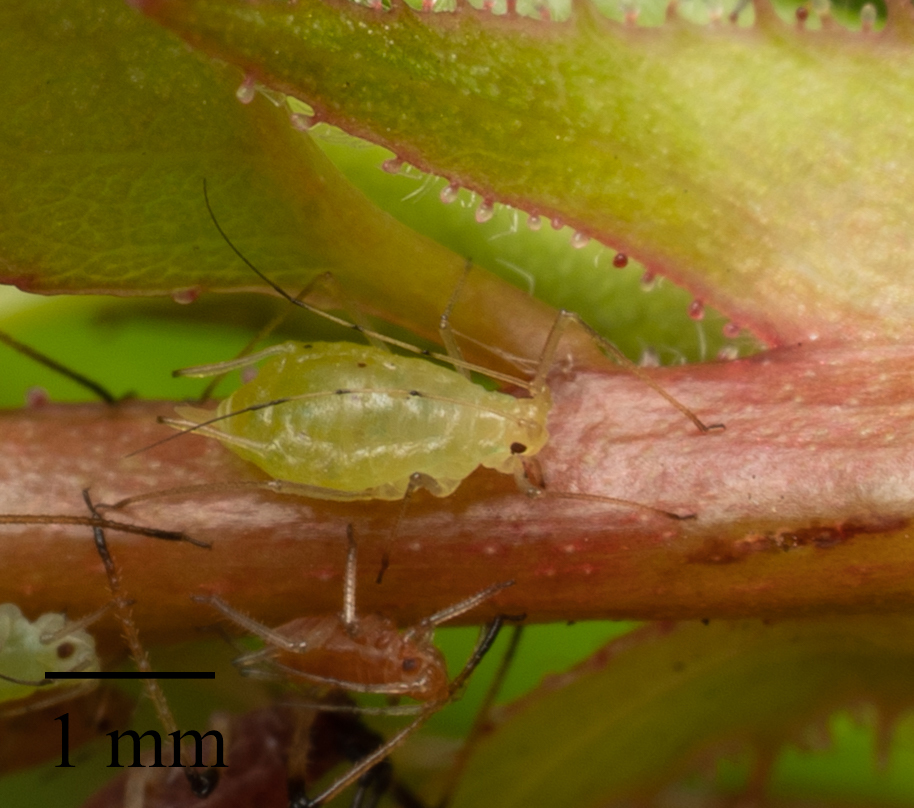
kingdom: Animalia
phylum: Arthropoda
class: Insecta
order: Hemiptera
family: Aphididae
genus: Wahlgreniella
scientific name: Wahlgreniella nervata
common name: Pale green aphid
